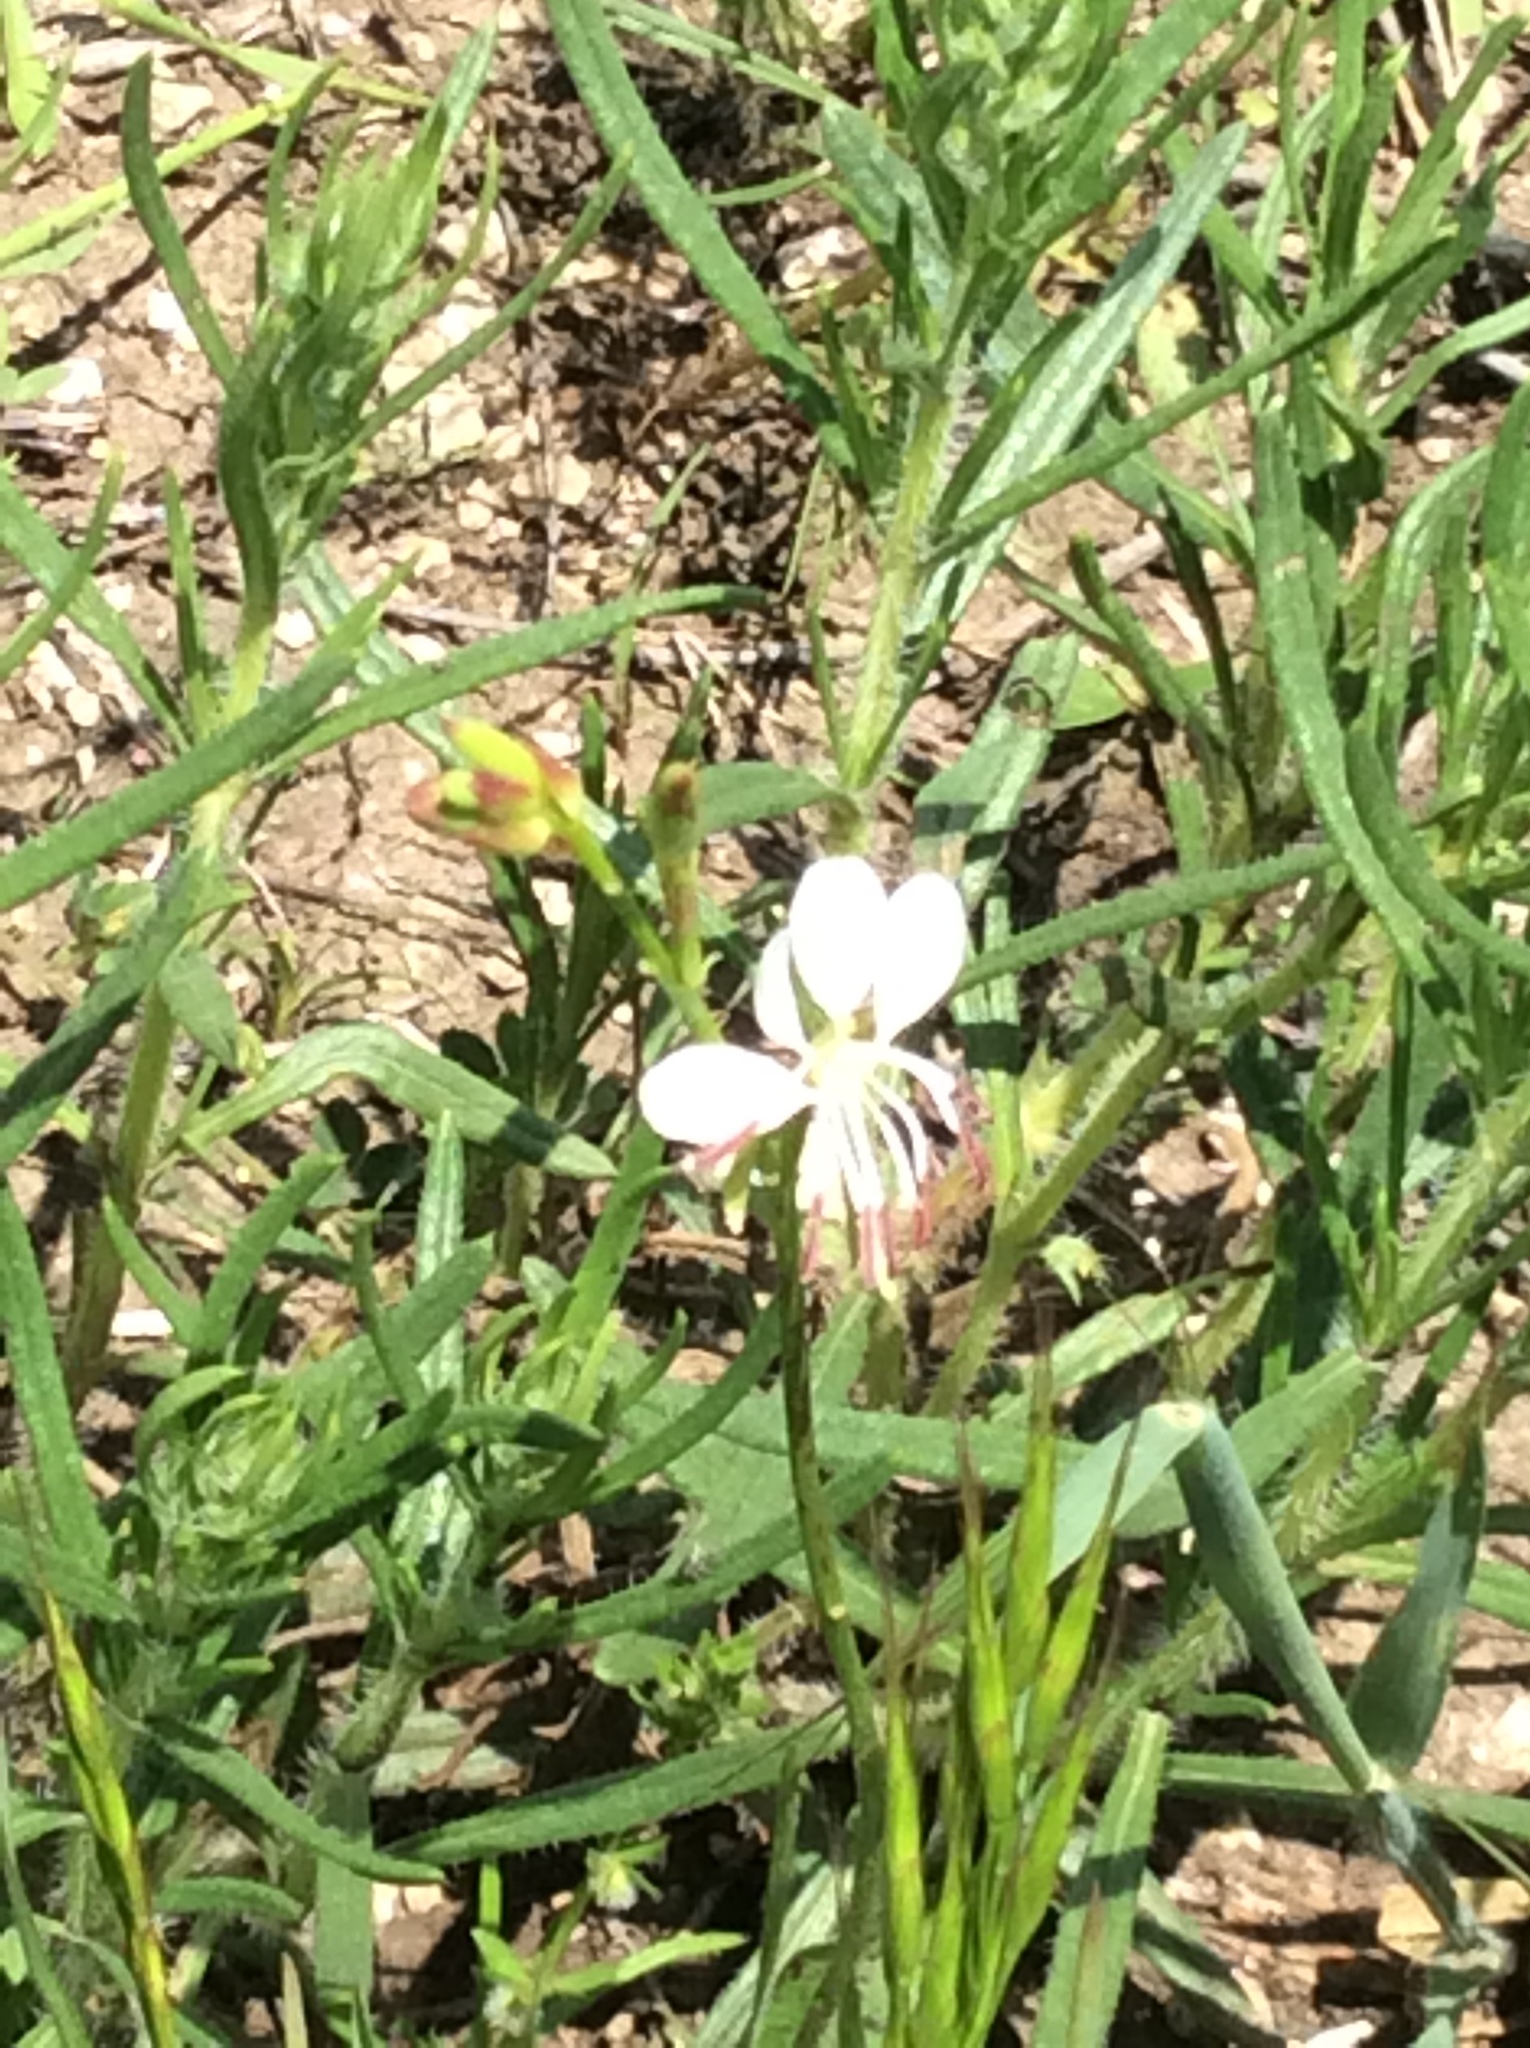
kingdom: Plantae
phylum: Tracheophyta
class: Magnoliopsida
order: Myrtales
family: Onagraceae
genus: Oenothera
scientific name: Oenothera suffulta
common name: Kisses
